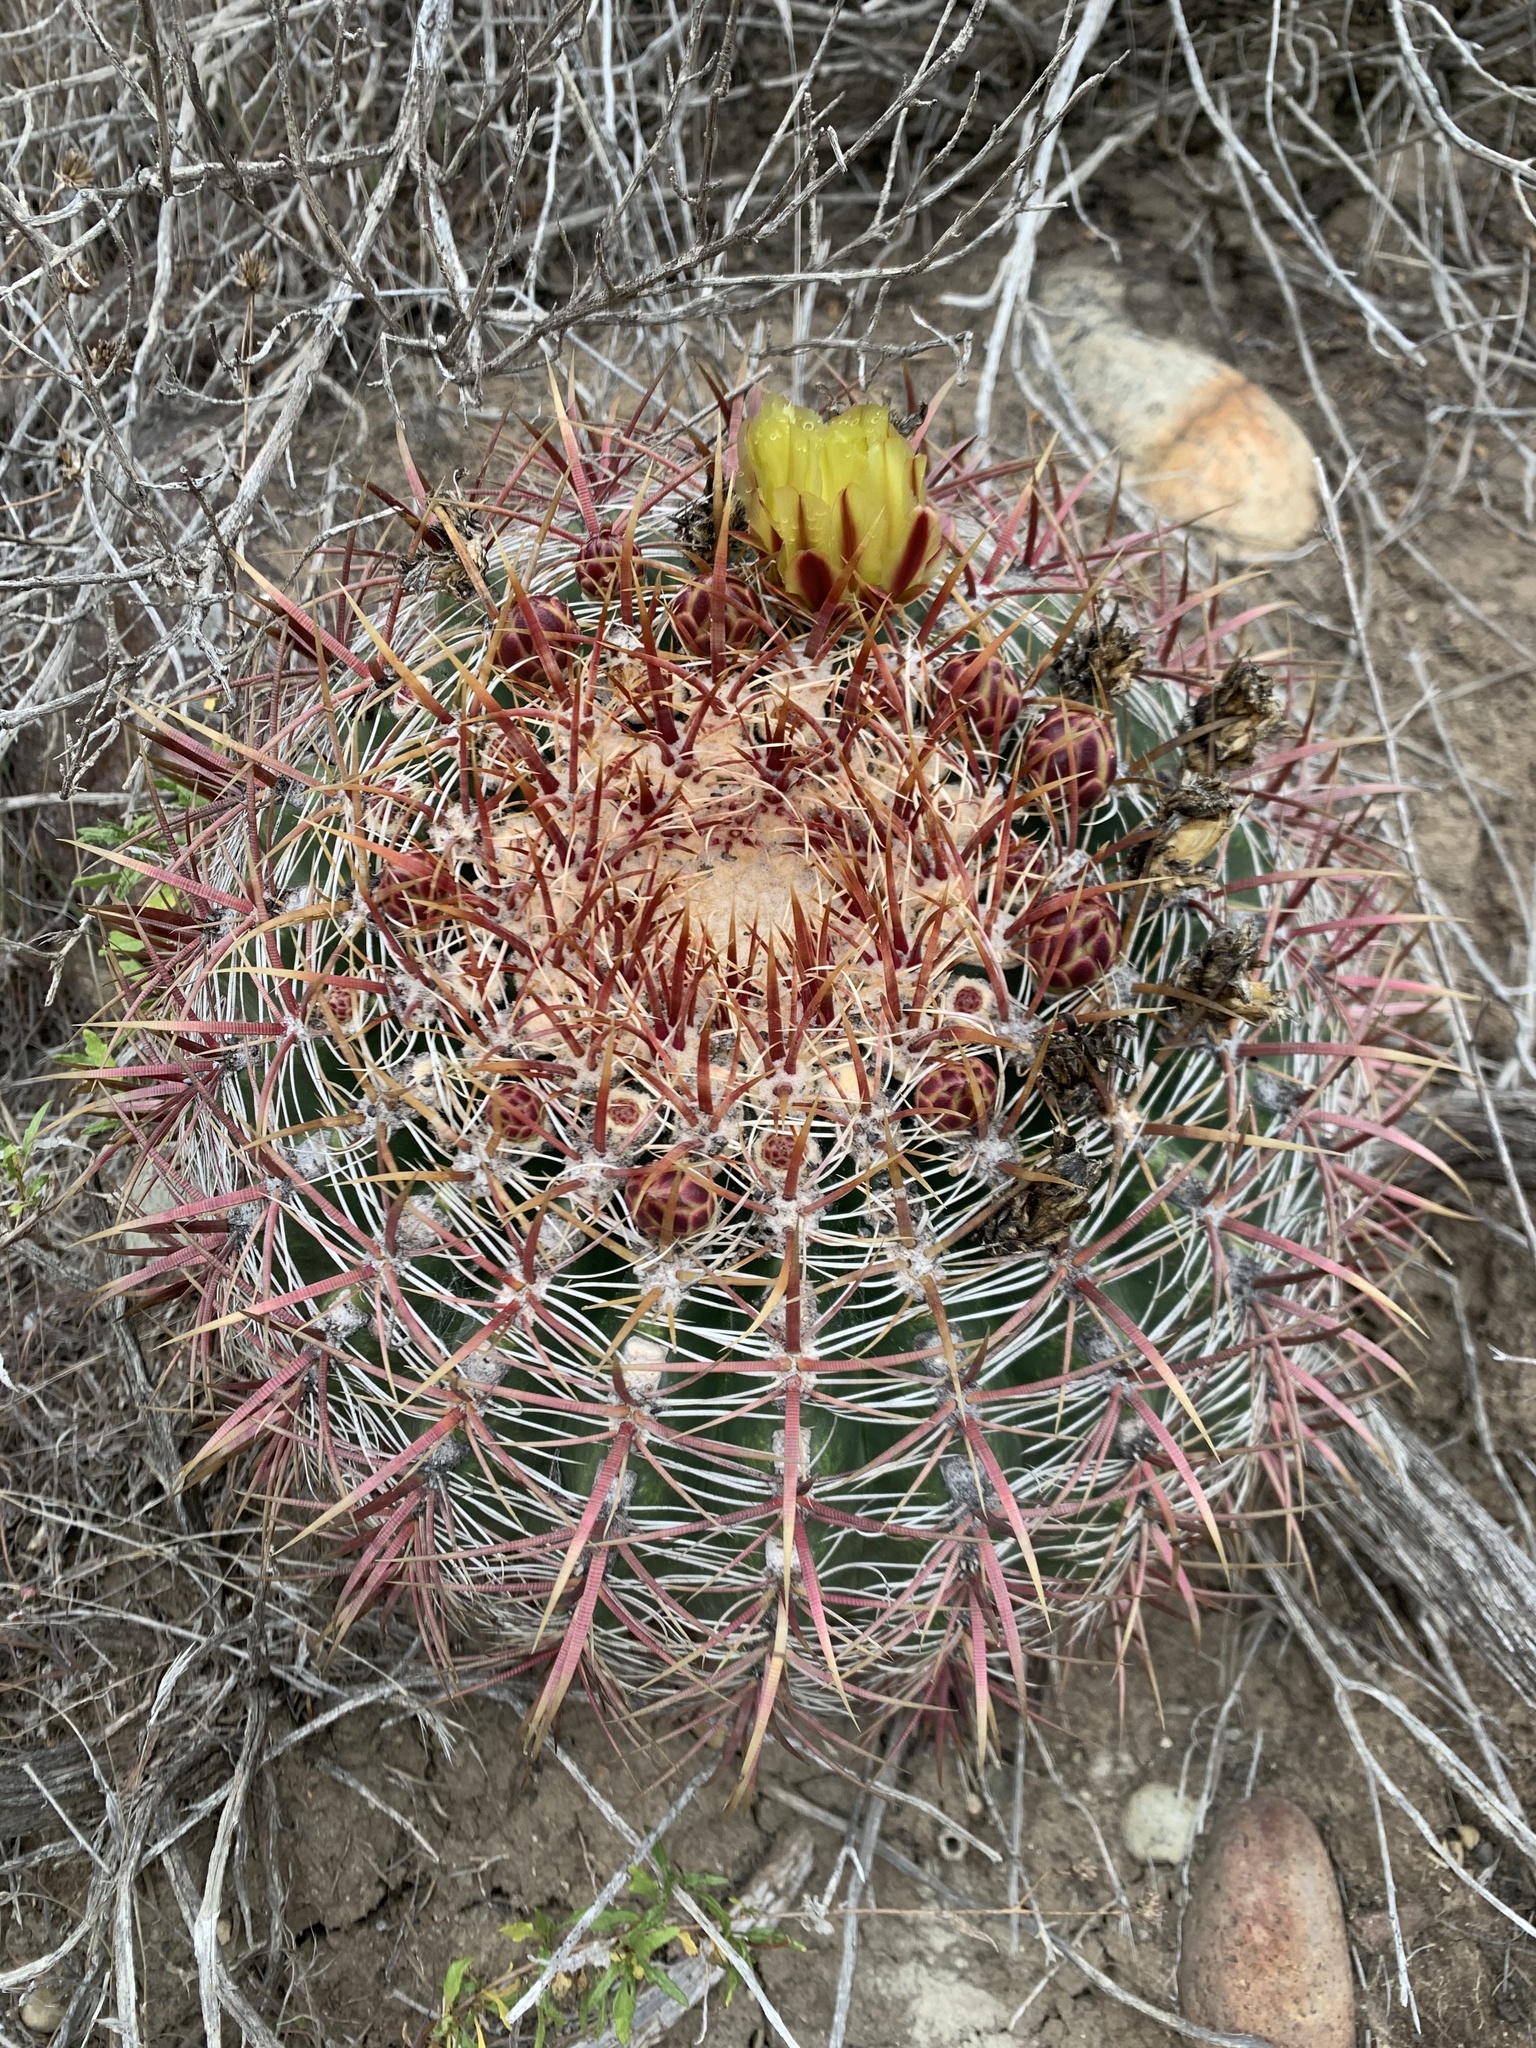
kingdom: Plantae
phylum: Tracheophyta
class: Magnoliopsida
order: Caryophyllales
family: Cactaceae
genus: Ferocactus
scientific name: Ferocactus viridescens
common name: San diego barrel cactus
